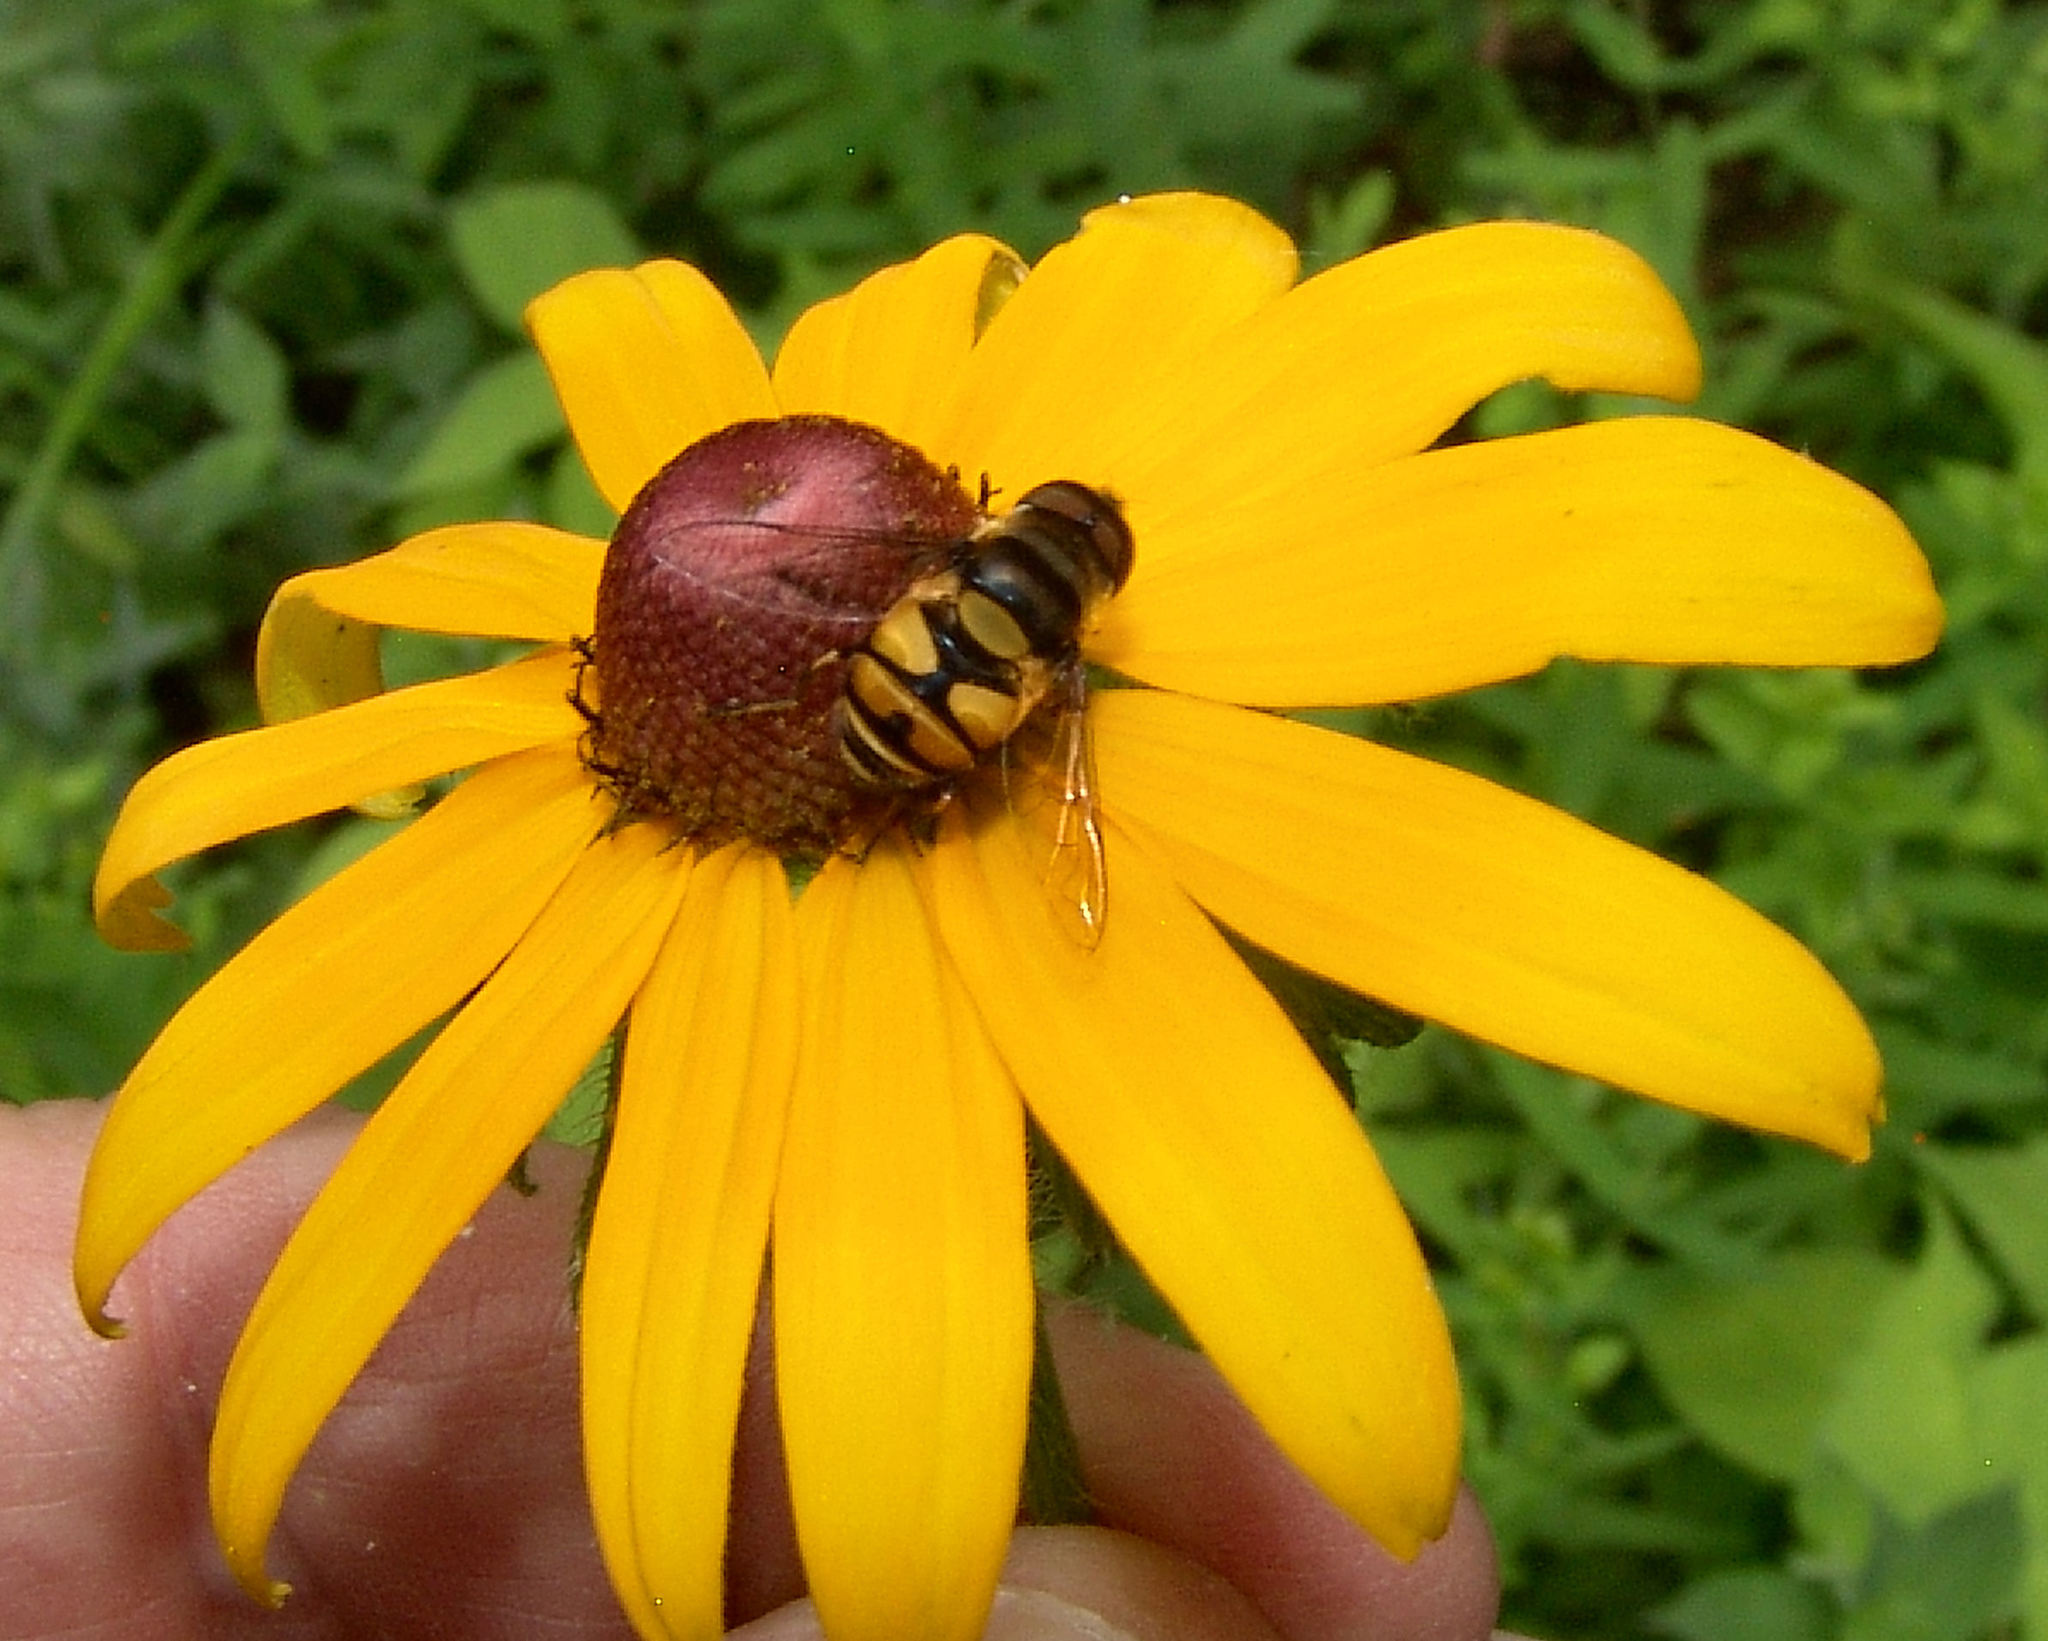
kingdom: Animalia
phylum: Arthropoda
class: Insecta
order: Diptera
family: Syrphidae
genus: Eristalis
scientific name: Eristalis transversa
